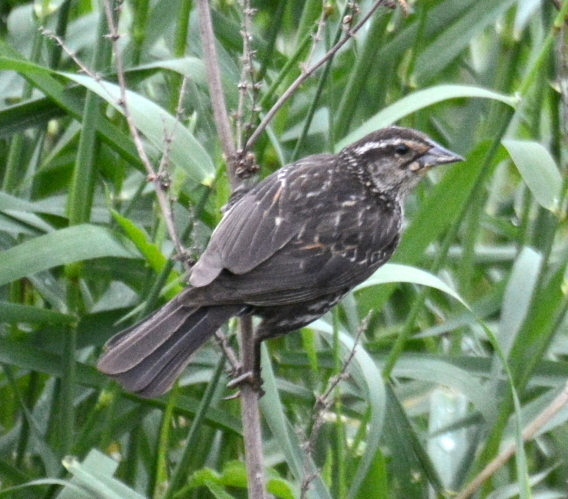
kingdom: Animalia
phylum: Chordata
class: Aves
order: Passeriformes
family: Icteridae
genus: Agelaius
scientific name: Agelaius phoeniceus
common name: Red-winged blackbird
